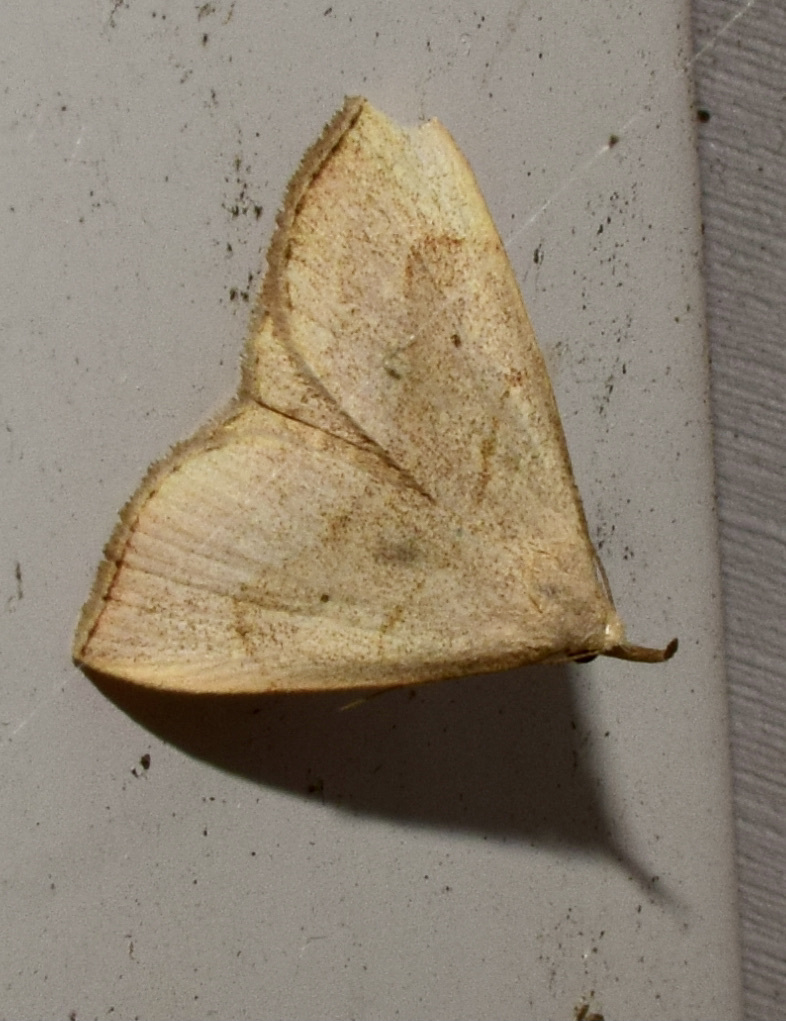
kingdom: Animalia
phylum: Arthropoda
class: Insecta
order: Lepidoptera
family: Erebidae
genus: Macrochilo
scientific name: Macrochilo litophora
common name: Brown-lined owlet
